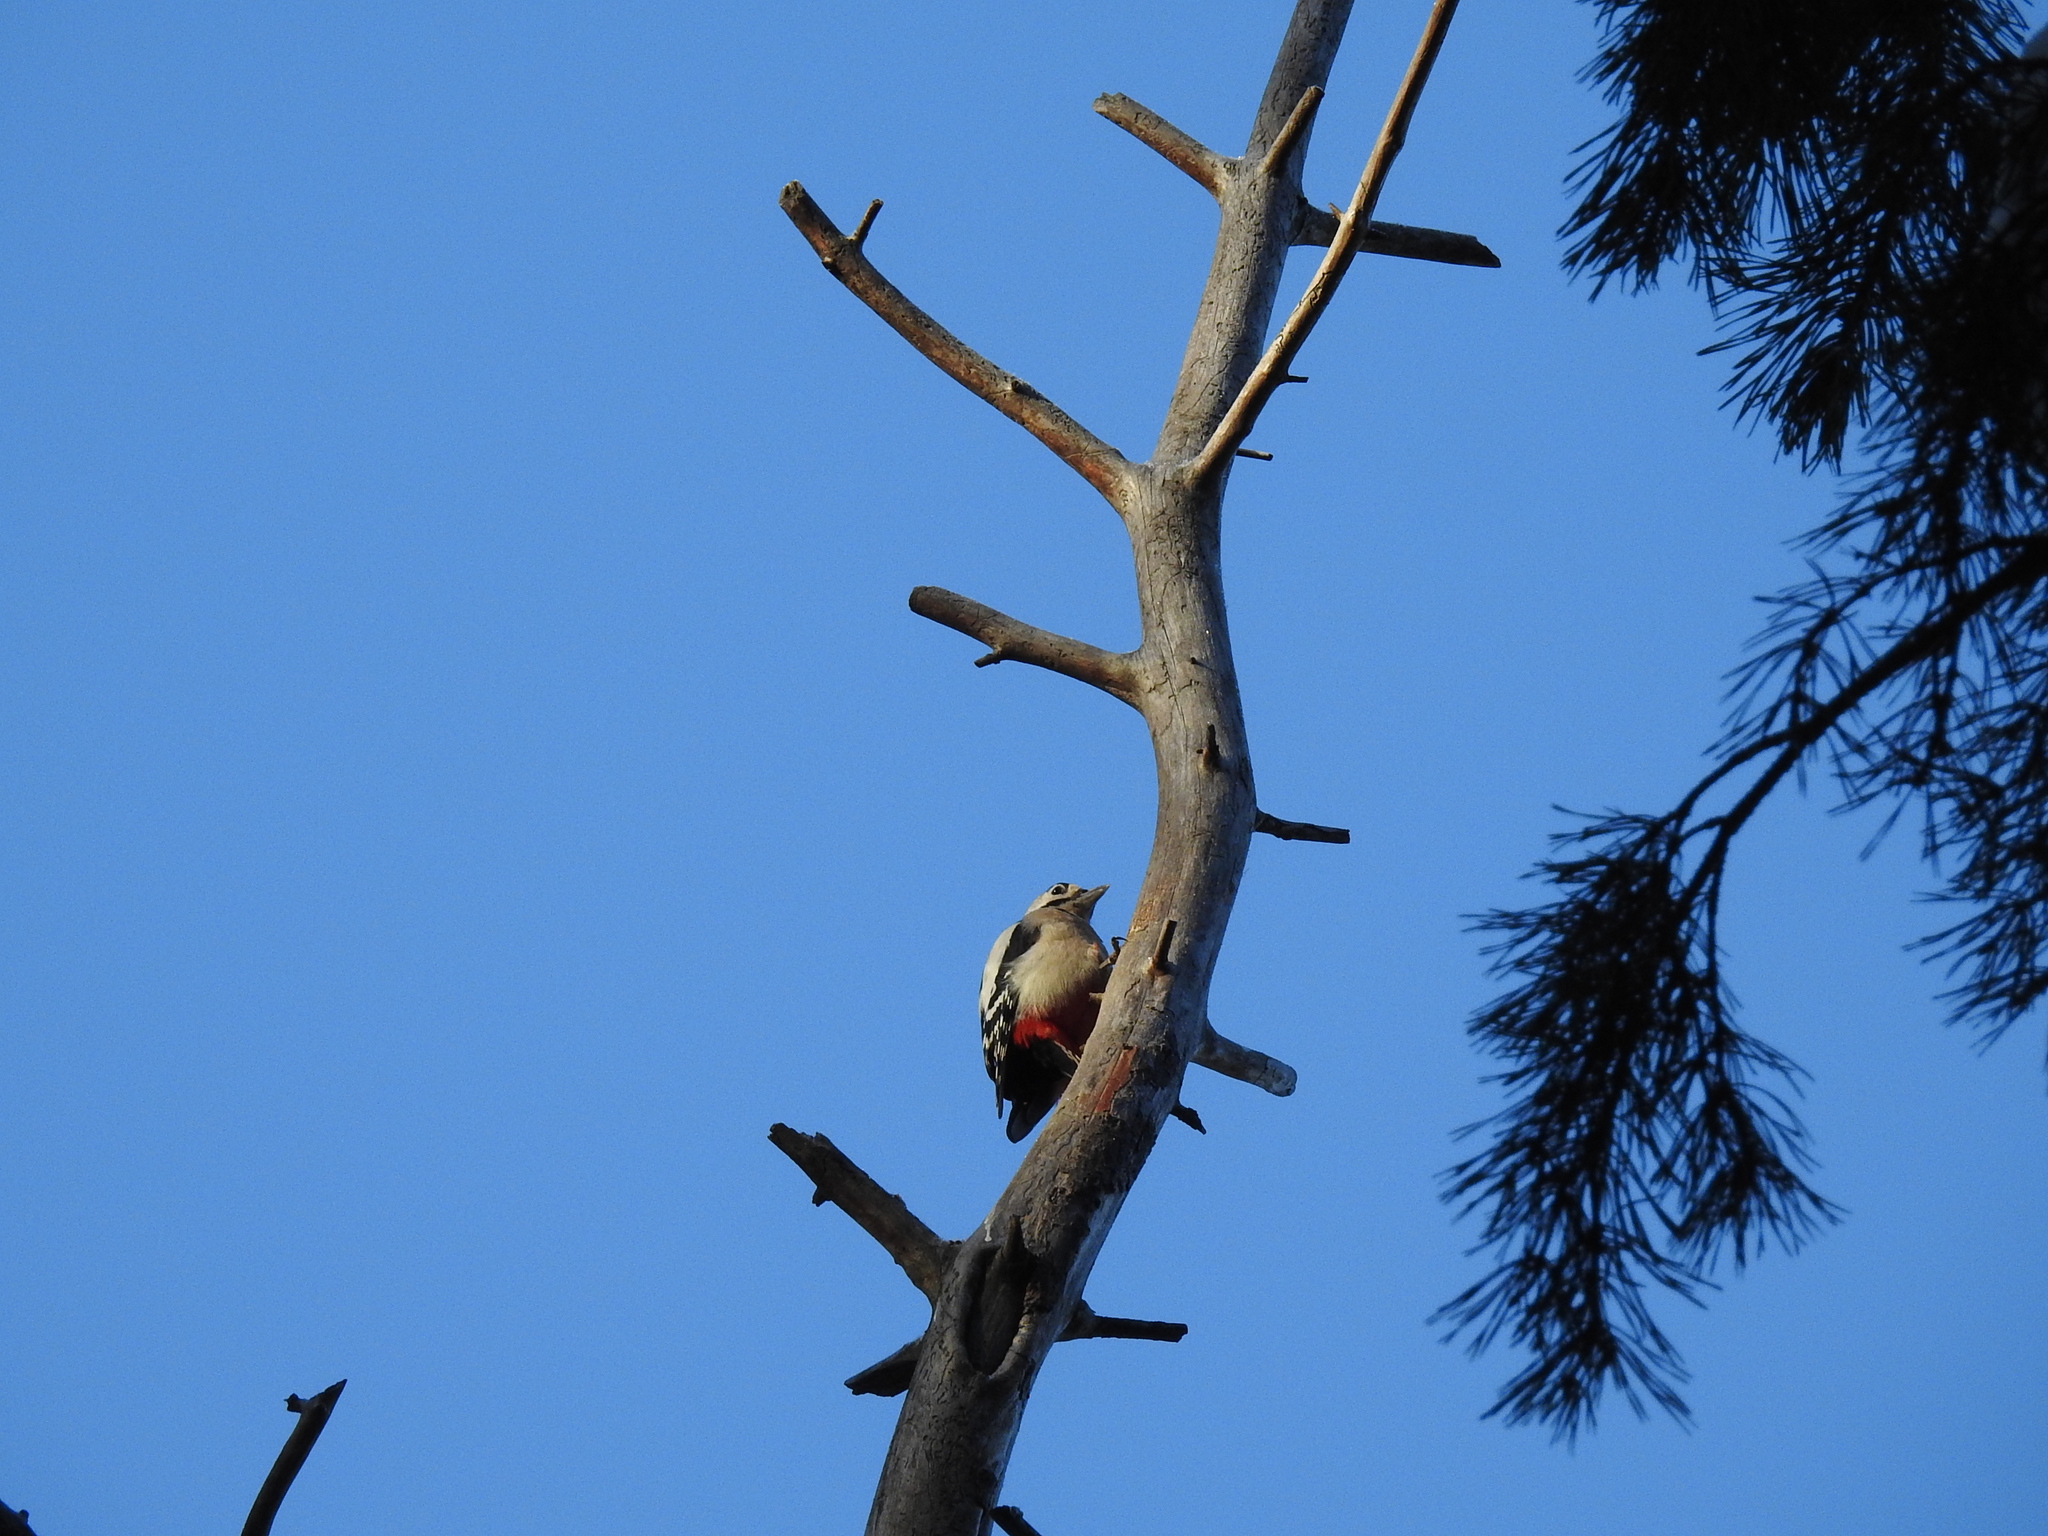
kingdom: Animalia
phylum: Chordata
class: Aves
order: Piciformes
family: Picidae
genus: Dendrocopos
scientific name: Dendrocopos major
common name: Great spotted woodpecker
